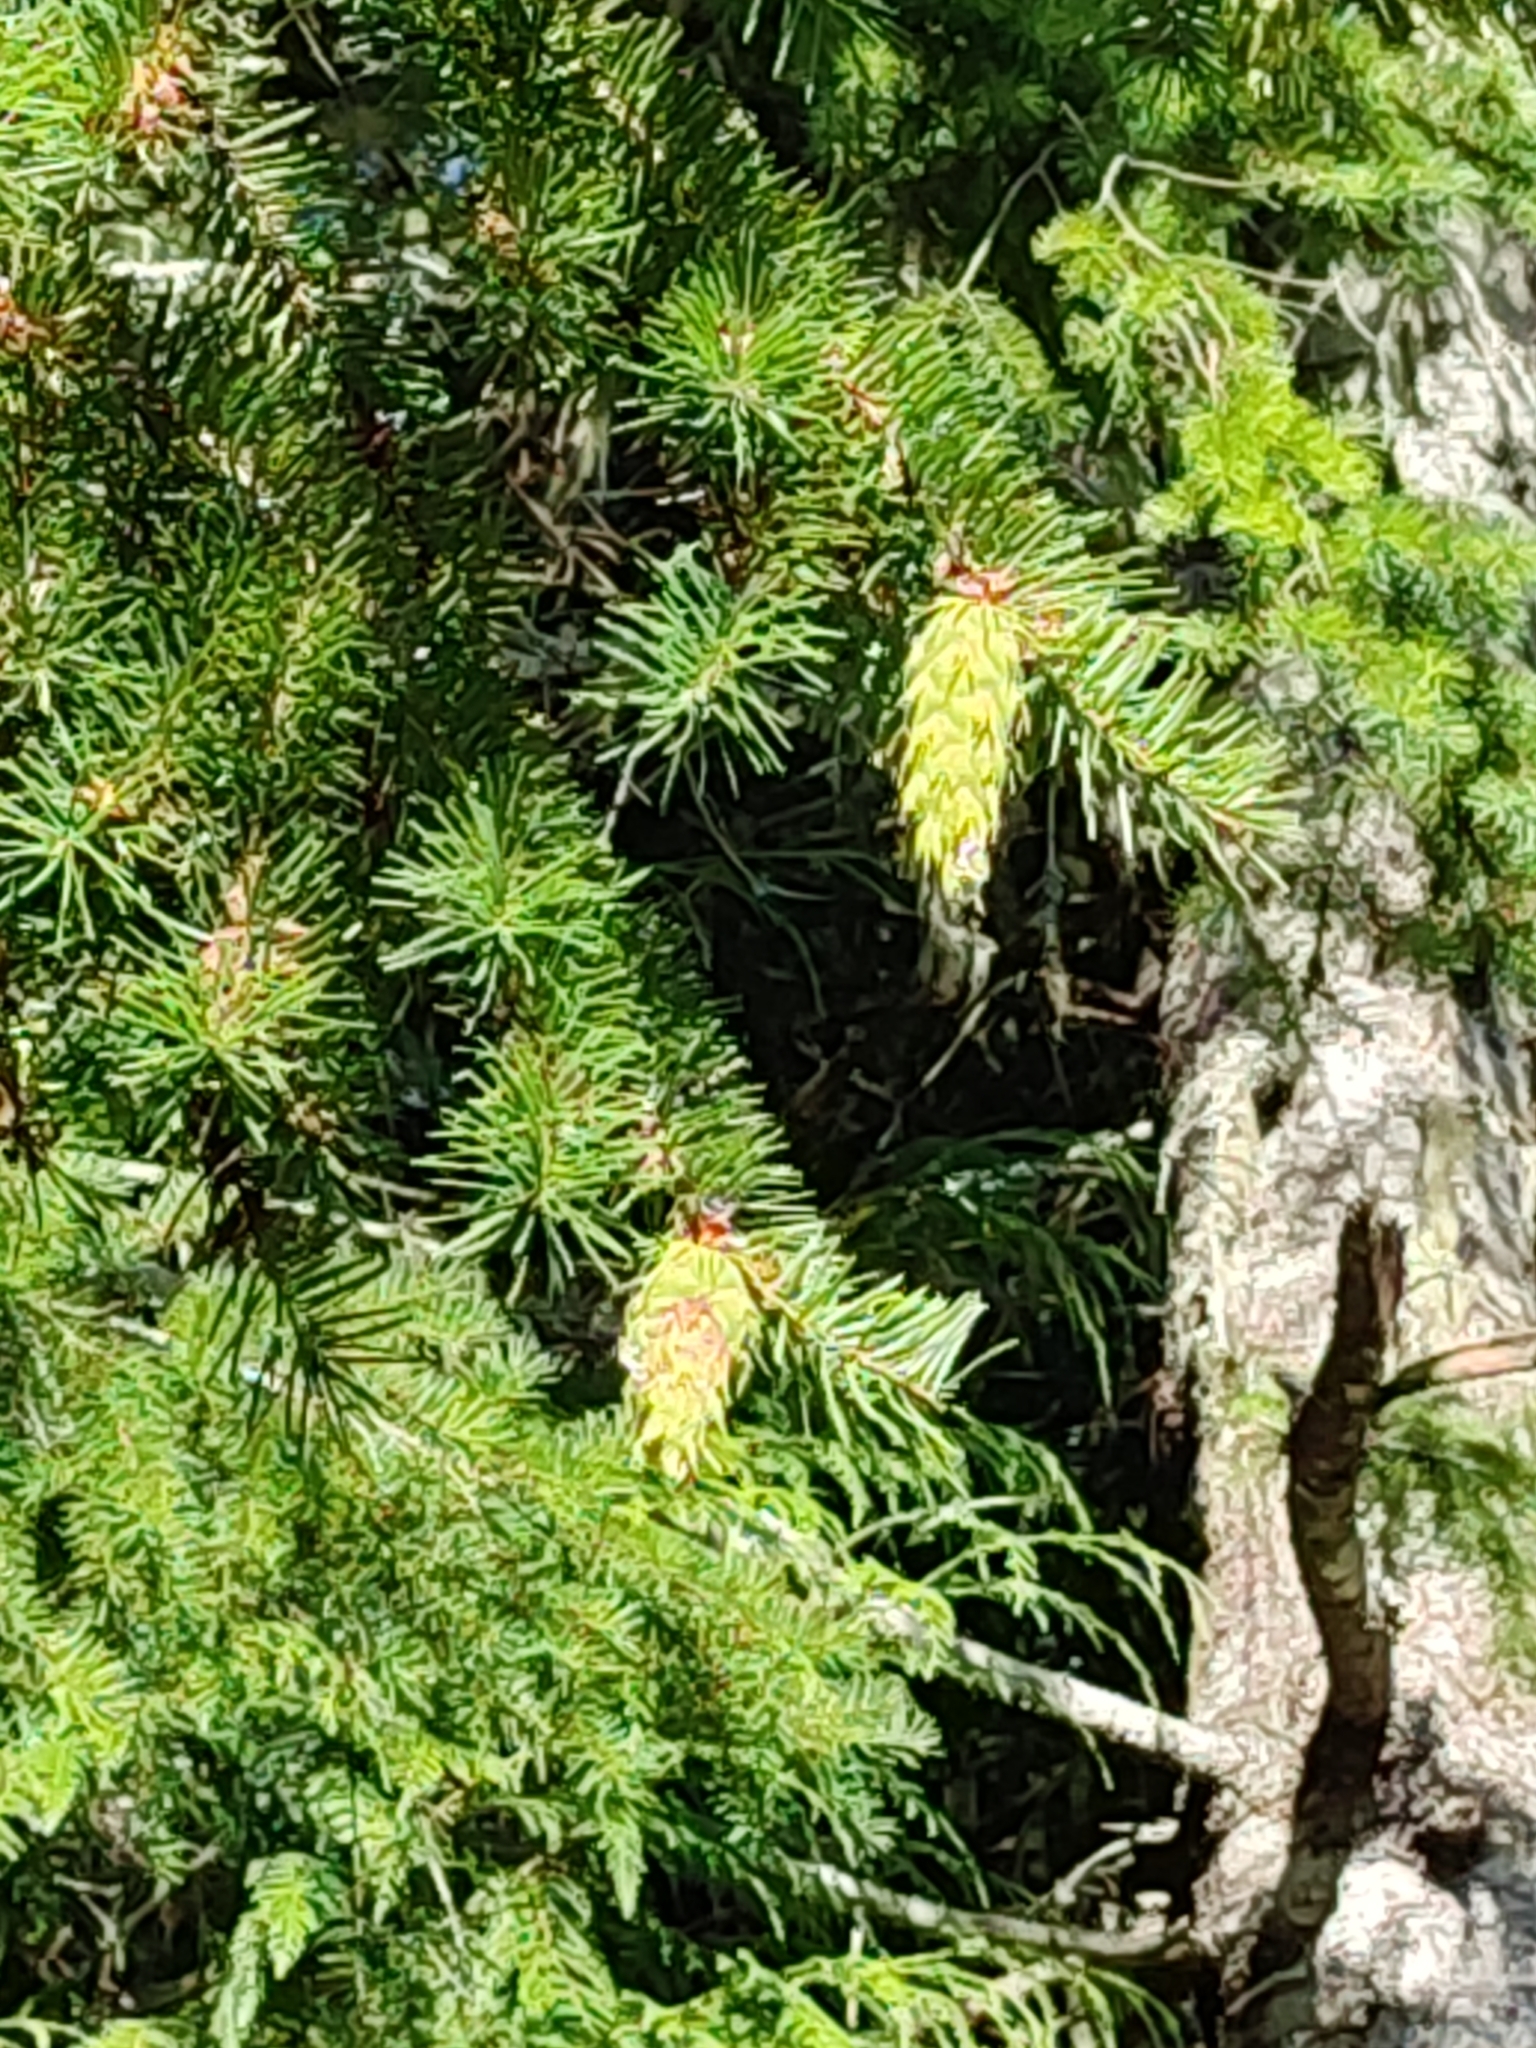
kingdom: Plantae
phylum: Tracheophyta
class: Pinopsida
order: Pinales
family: Pinaceae
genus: Pseudotsuga
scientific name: Pseudotsuga menziesii
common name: Douglas fir
